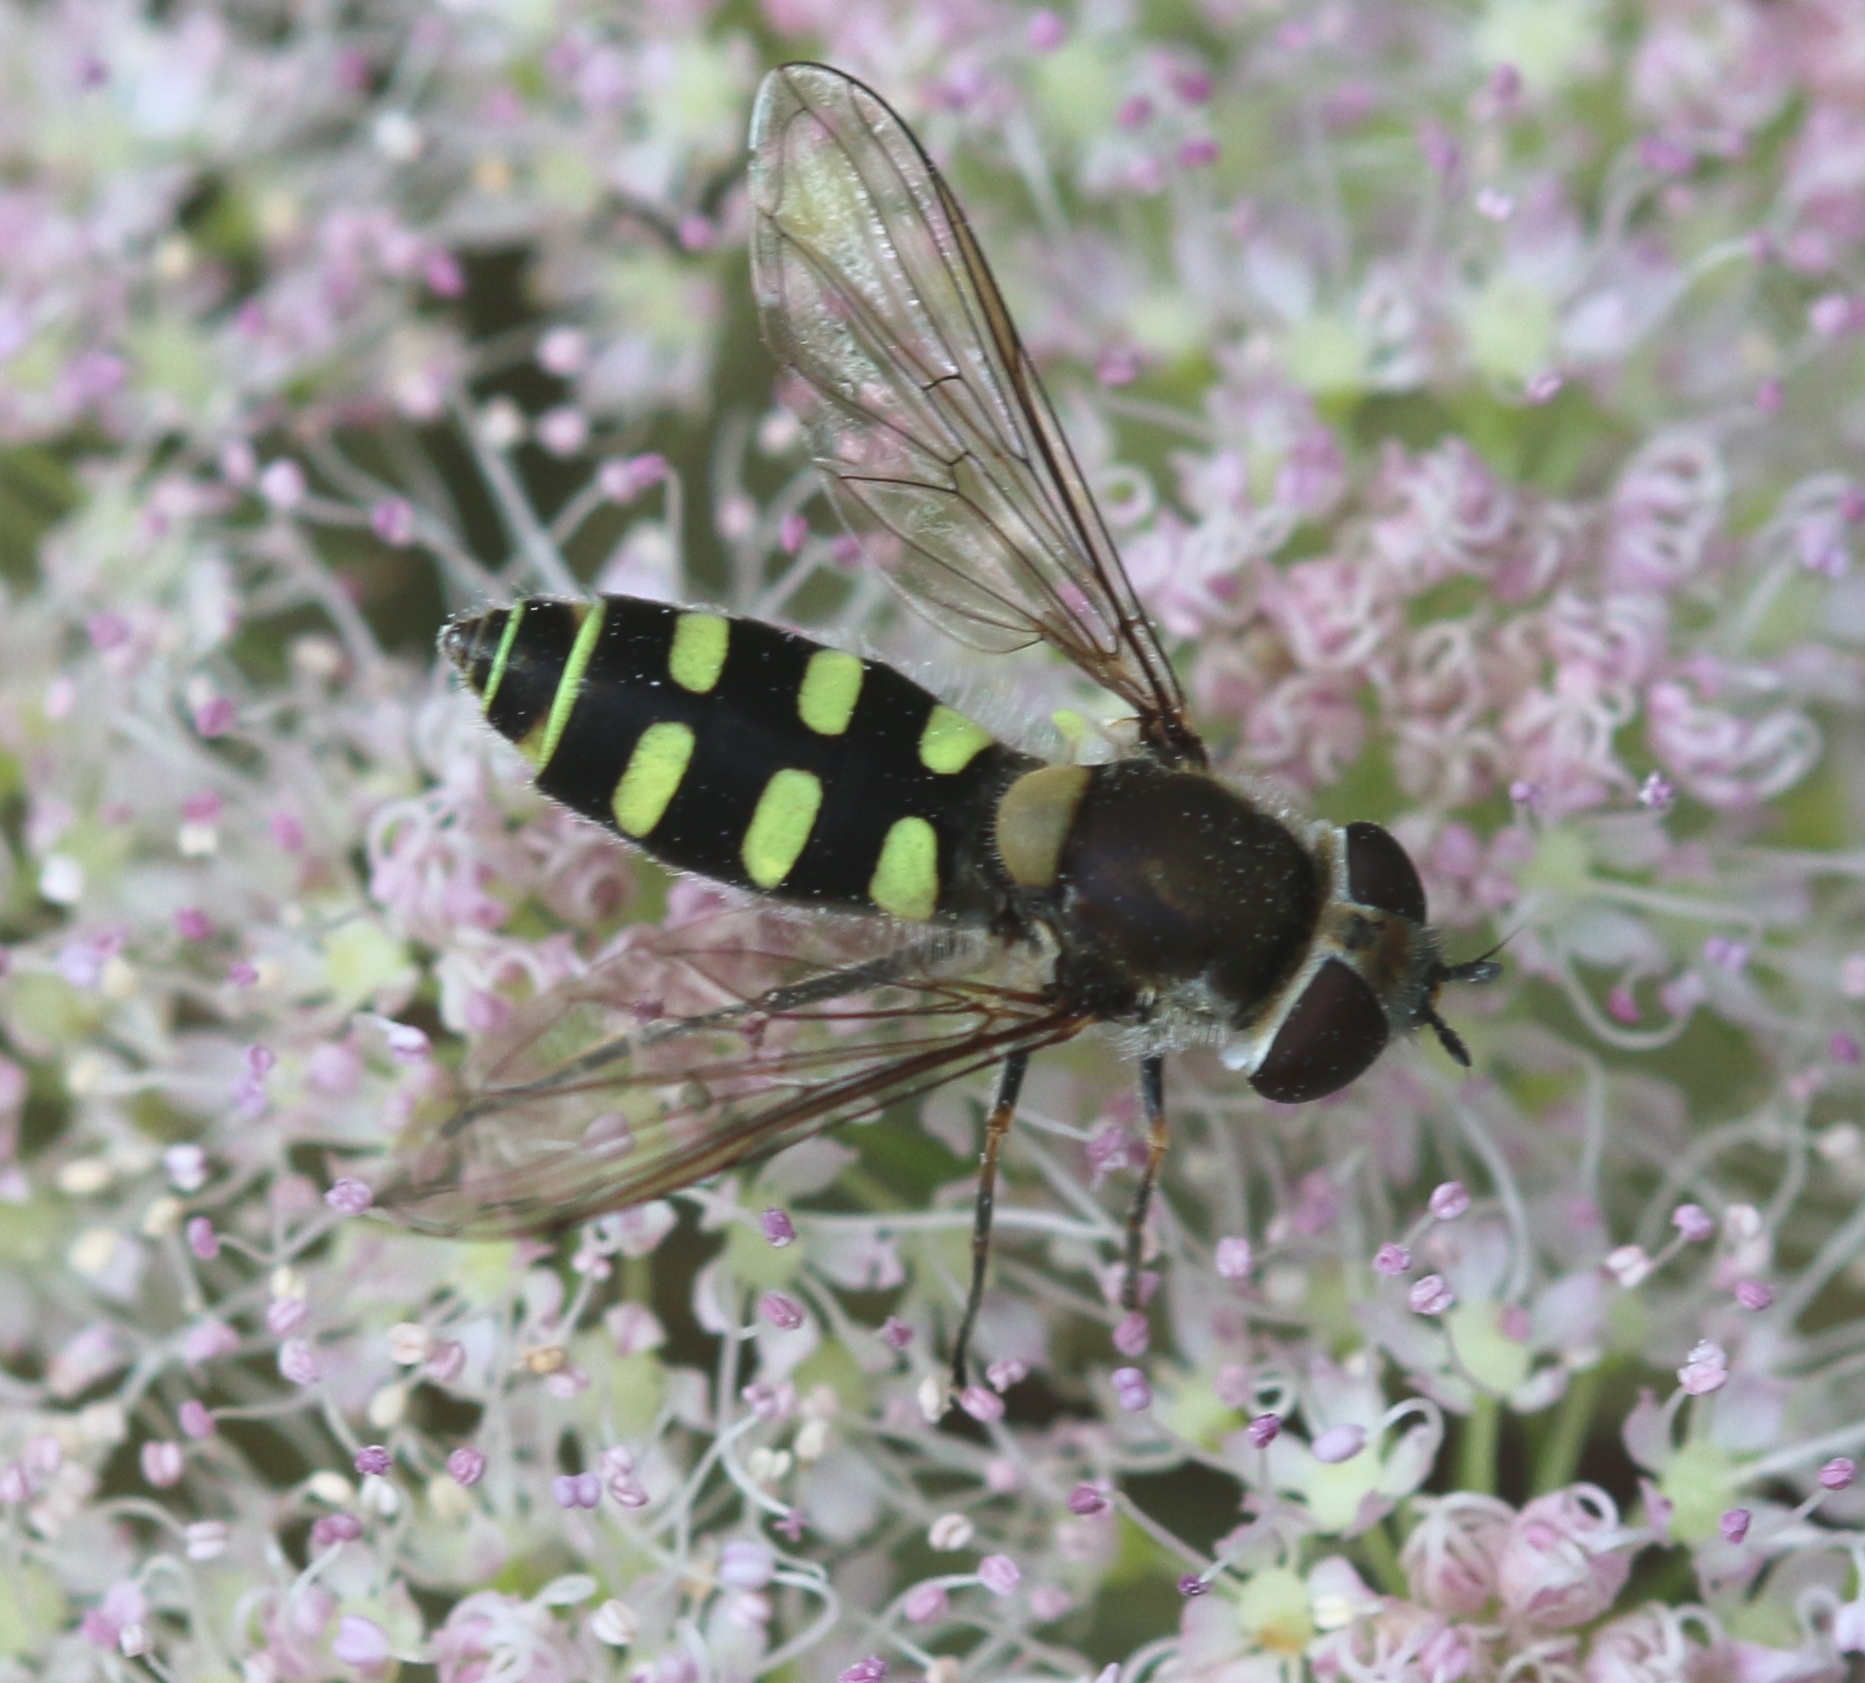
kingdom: Animalia
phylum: Arthropoda
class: Insecta
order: Diptera
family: Syrphidae
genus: Melangyna
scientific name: Melangyna labiatarum
